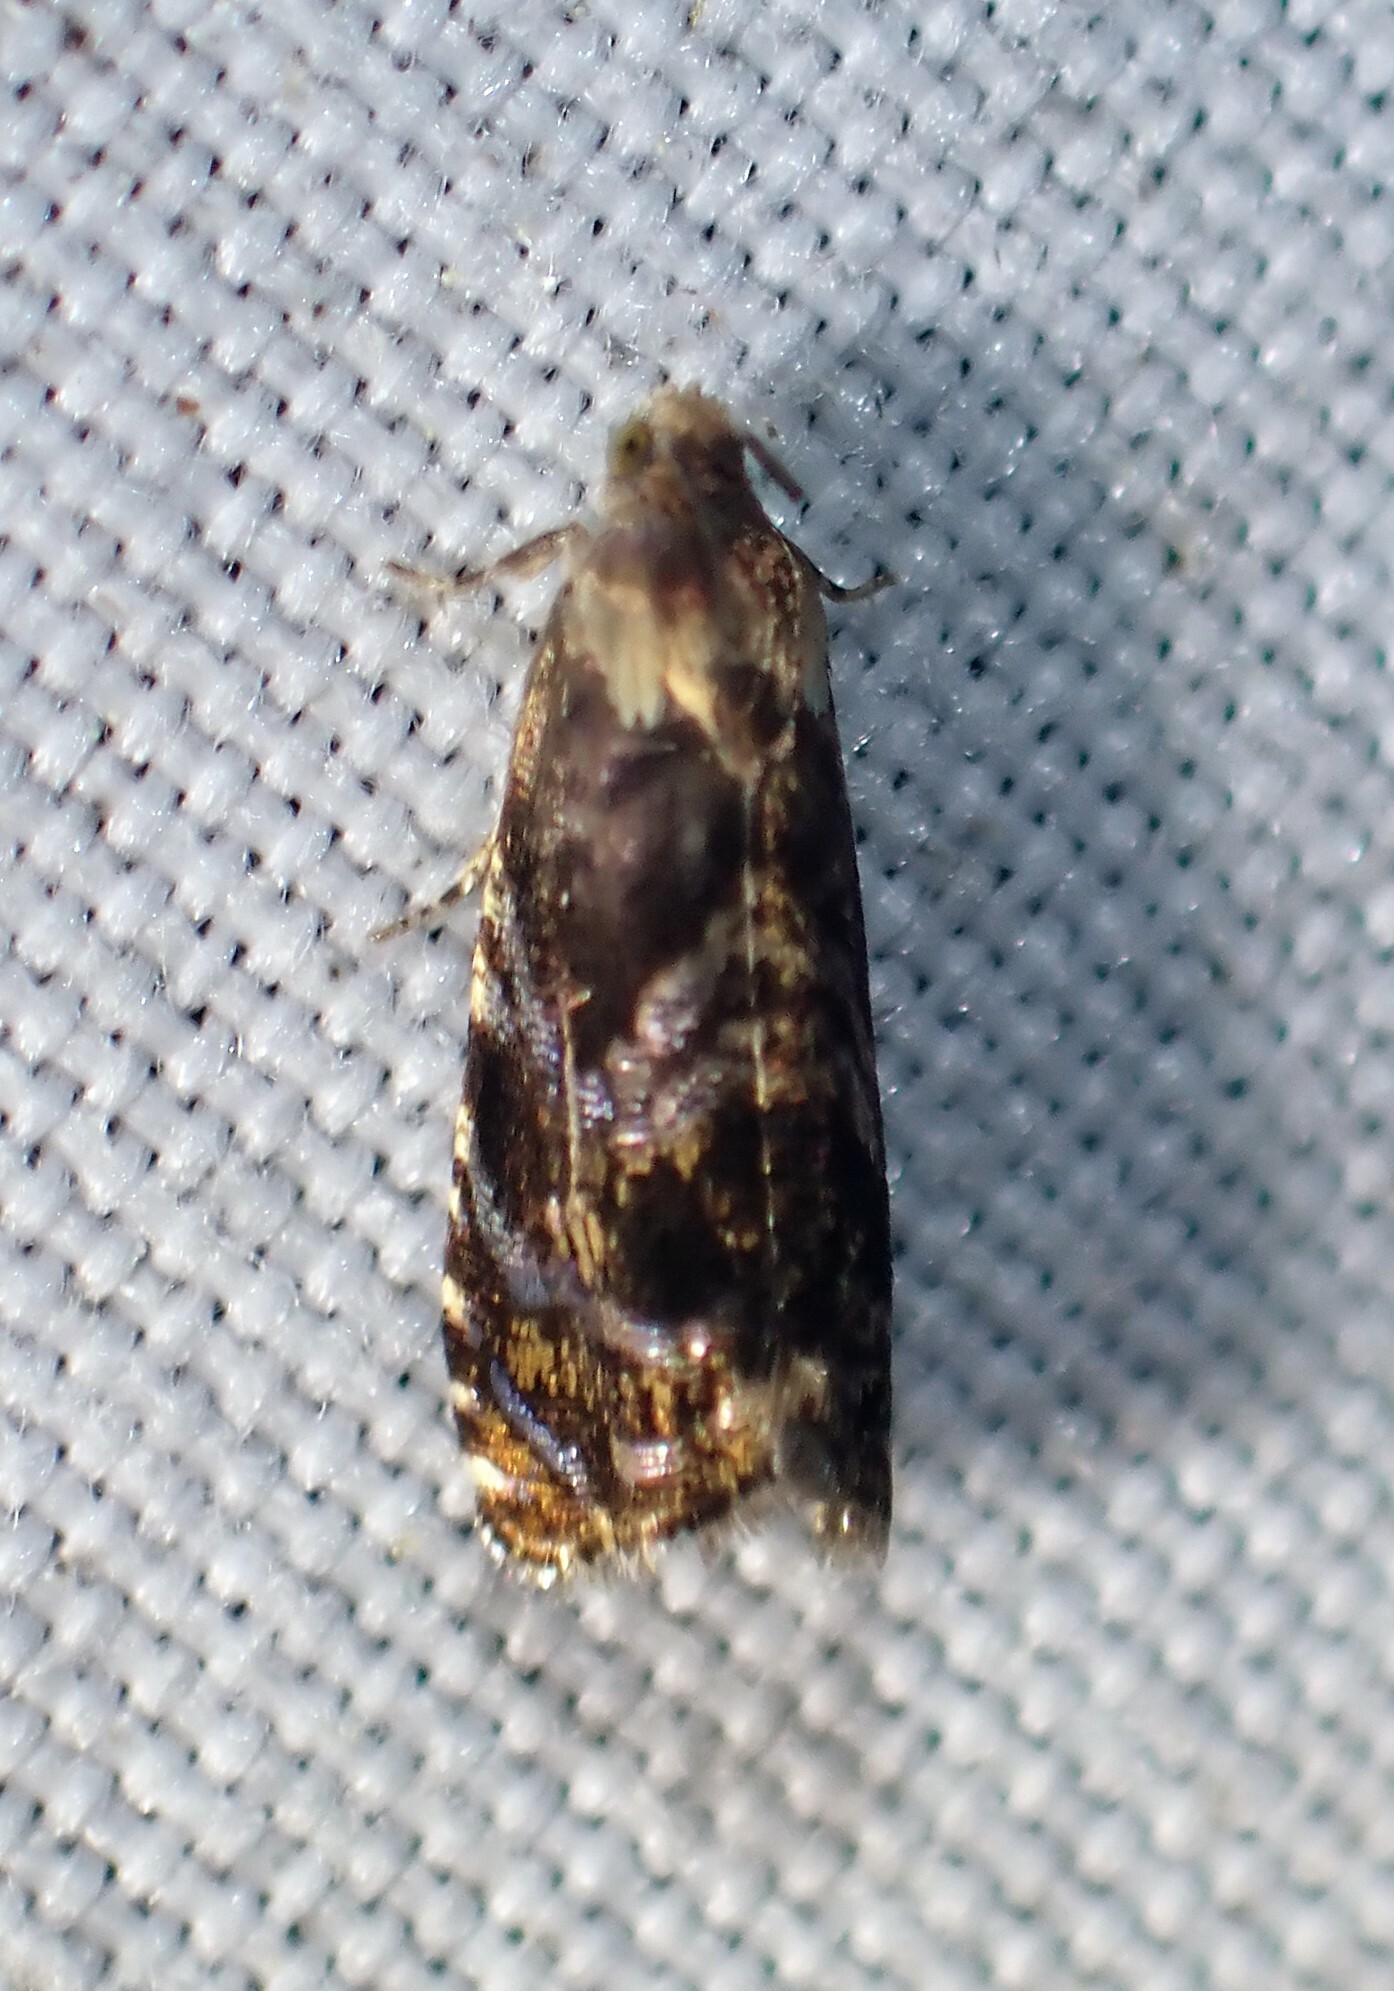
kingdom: Animalia
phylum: Arthropoda
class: Insecta
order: Lepidoptera
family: Noctuidae
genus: Aspila
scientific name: Aspila
